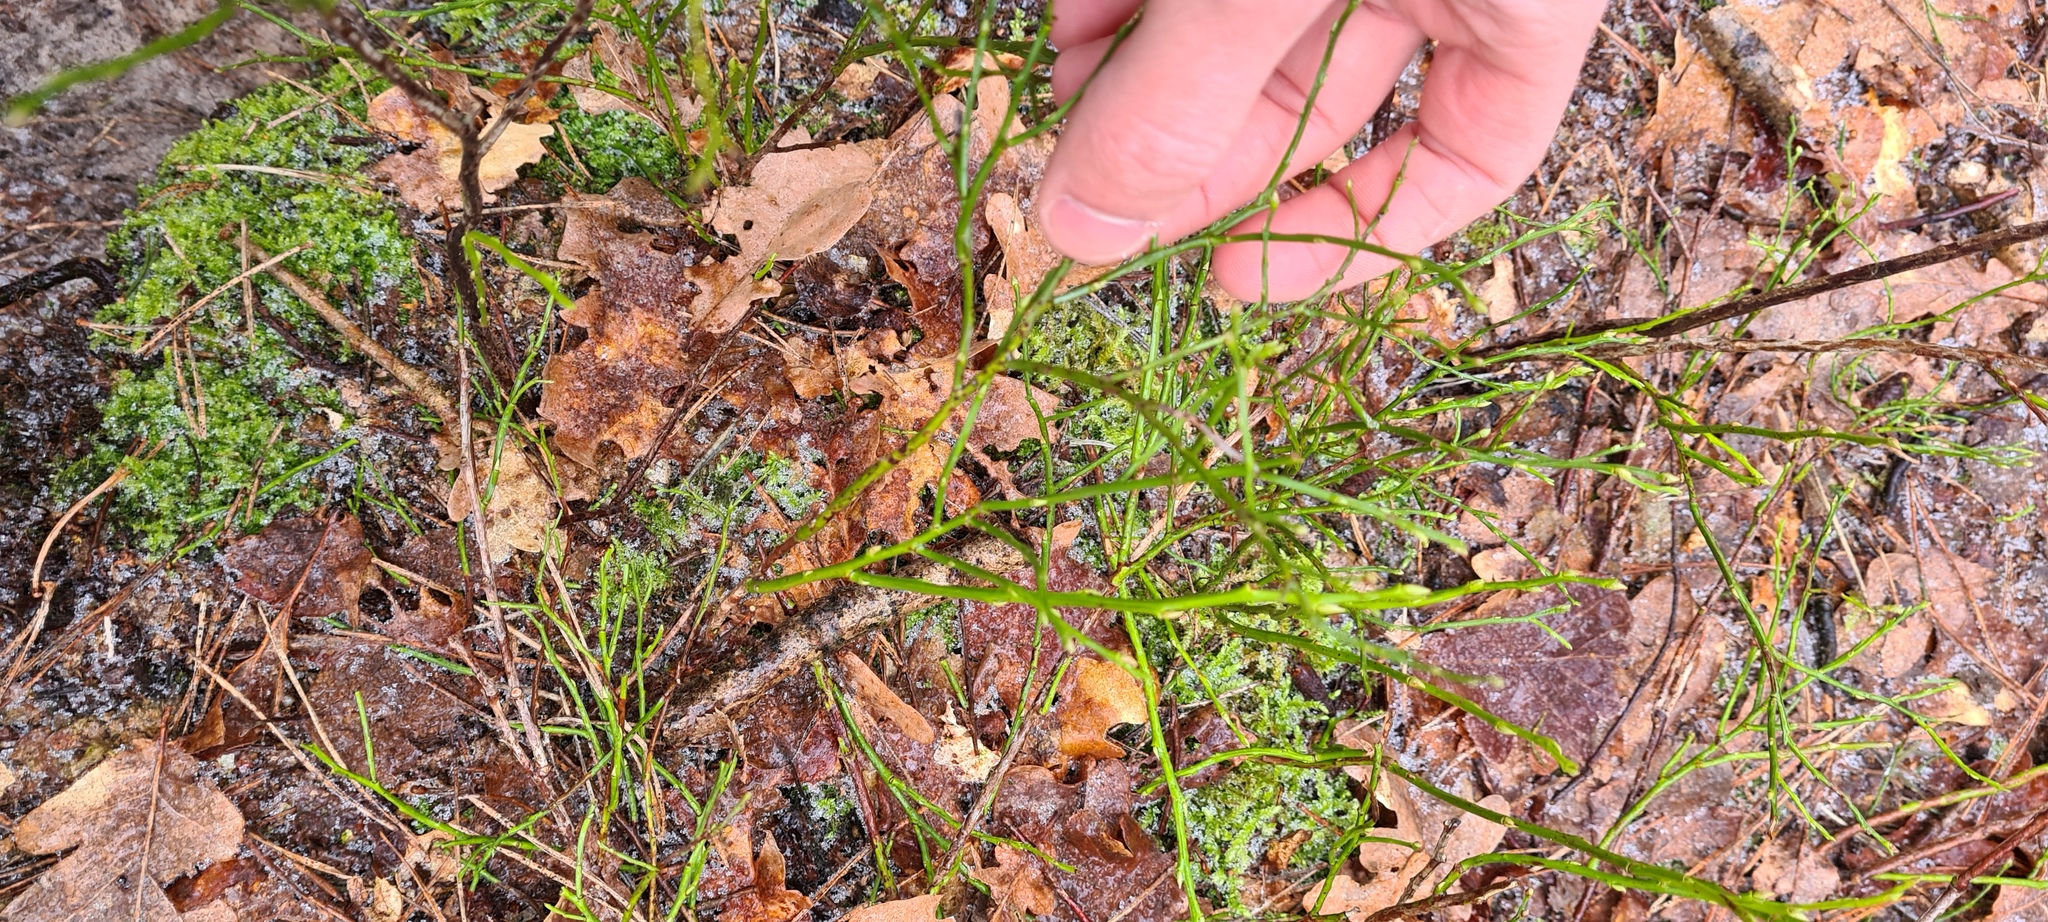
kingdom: Plantae
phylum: Tracheophyta
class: Magnoliopsida
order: Ericales
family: Ericaceae
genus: Vaccinium
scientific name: Vaccinium myrtillus
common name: Bilberry
